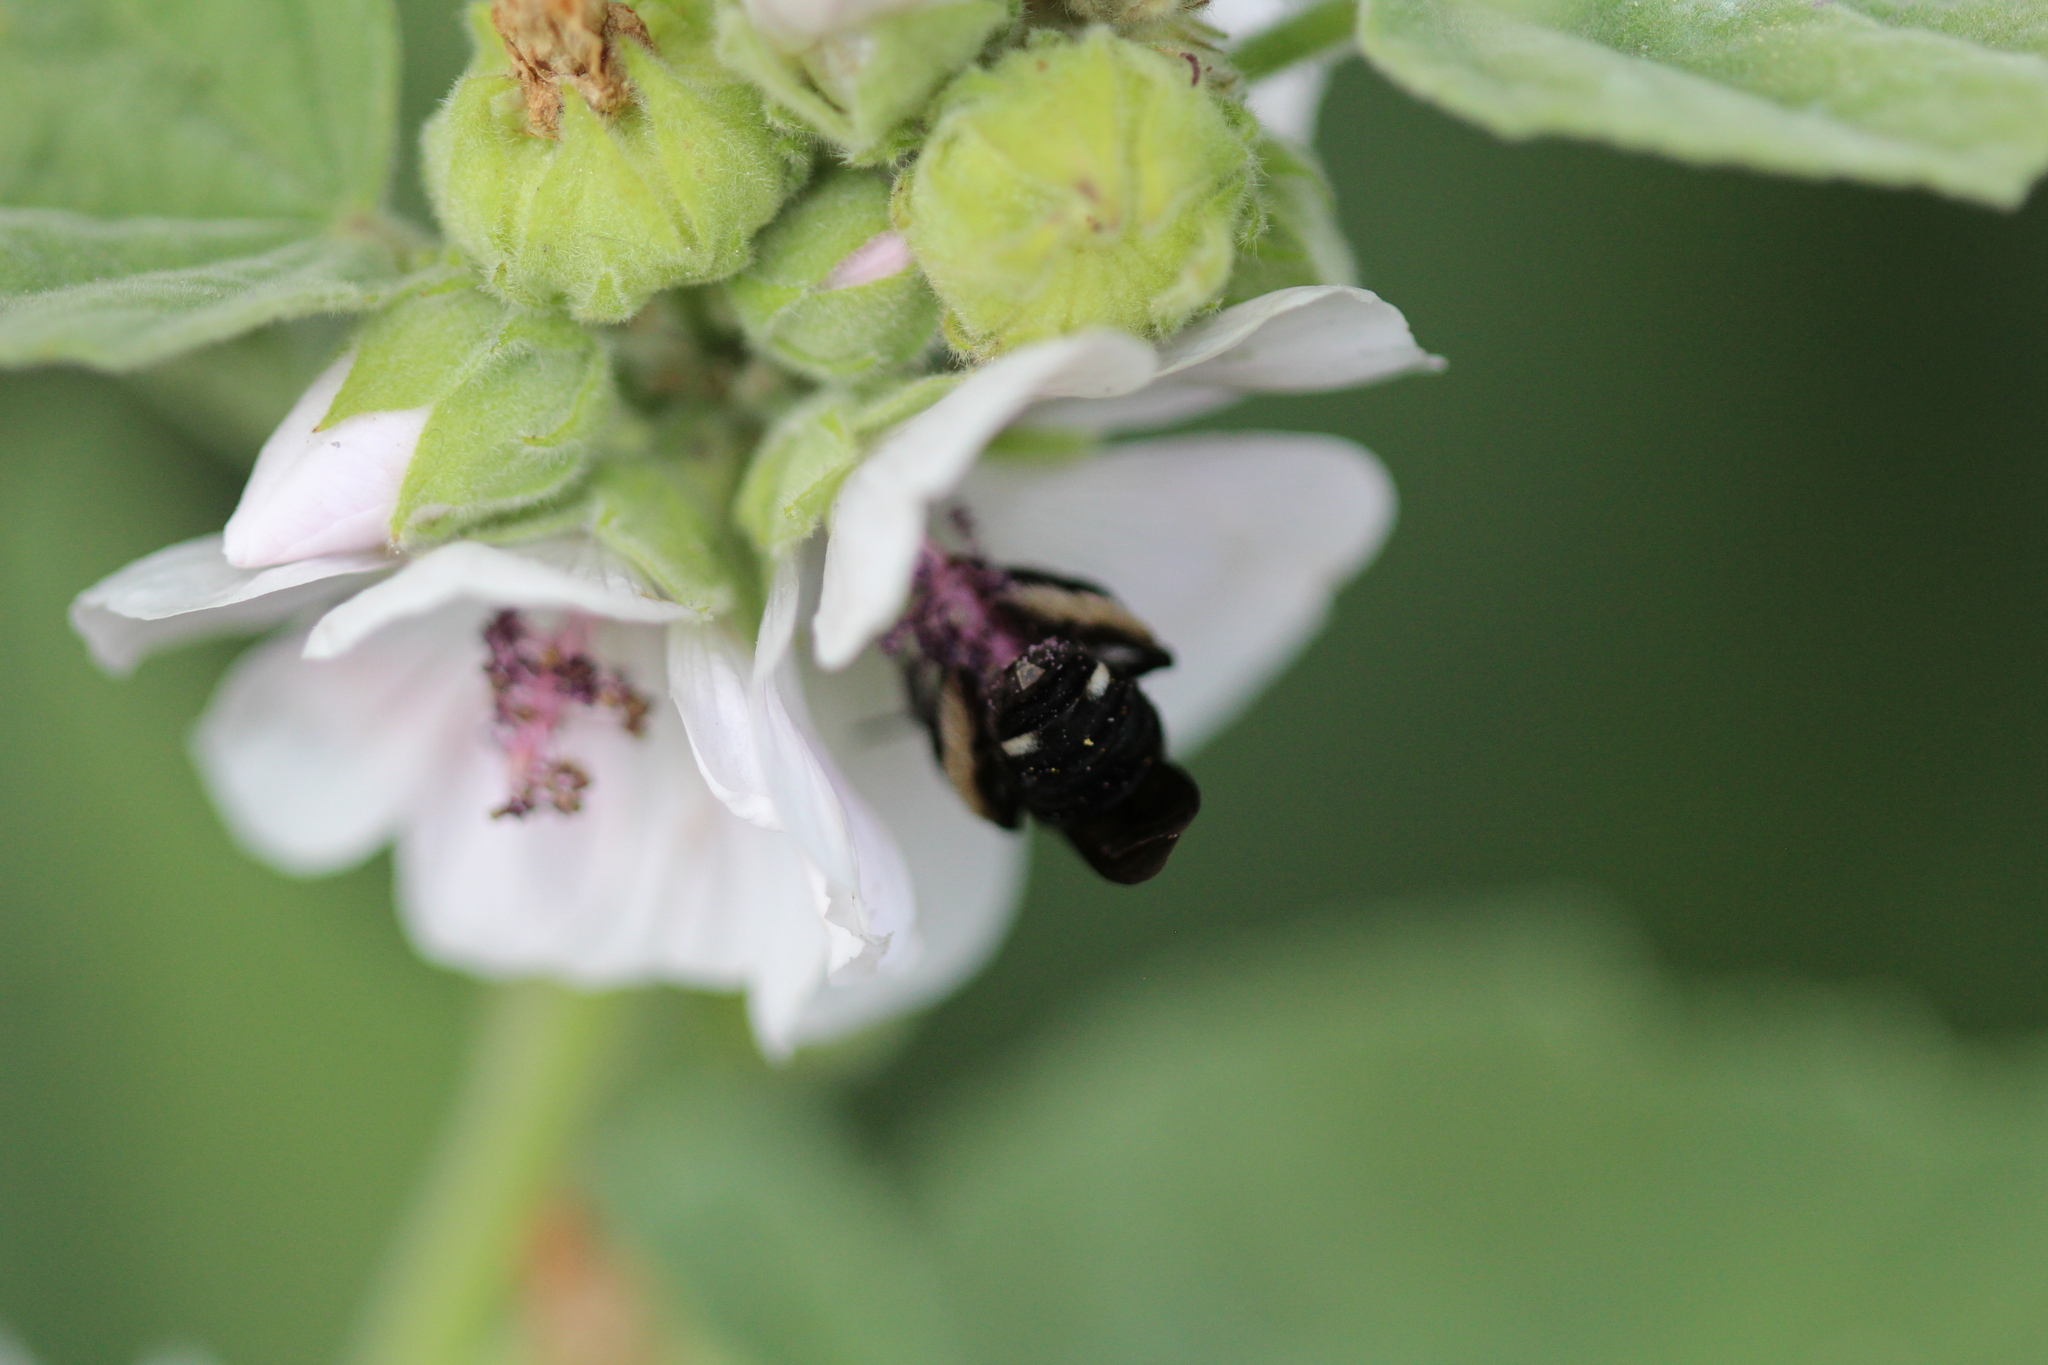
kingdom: Animalia
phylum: Arthropoda
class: Insecta
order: Hymenoptera
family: Apidae
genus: Melissodes
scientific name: Melissodes bimaculatus
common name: Two-spotted long-horned bee
